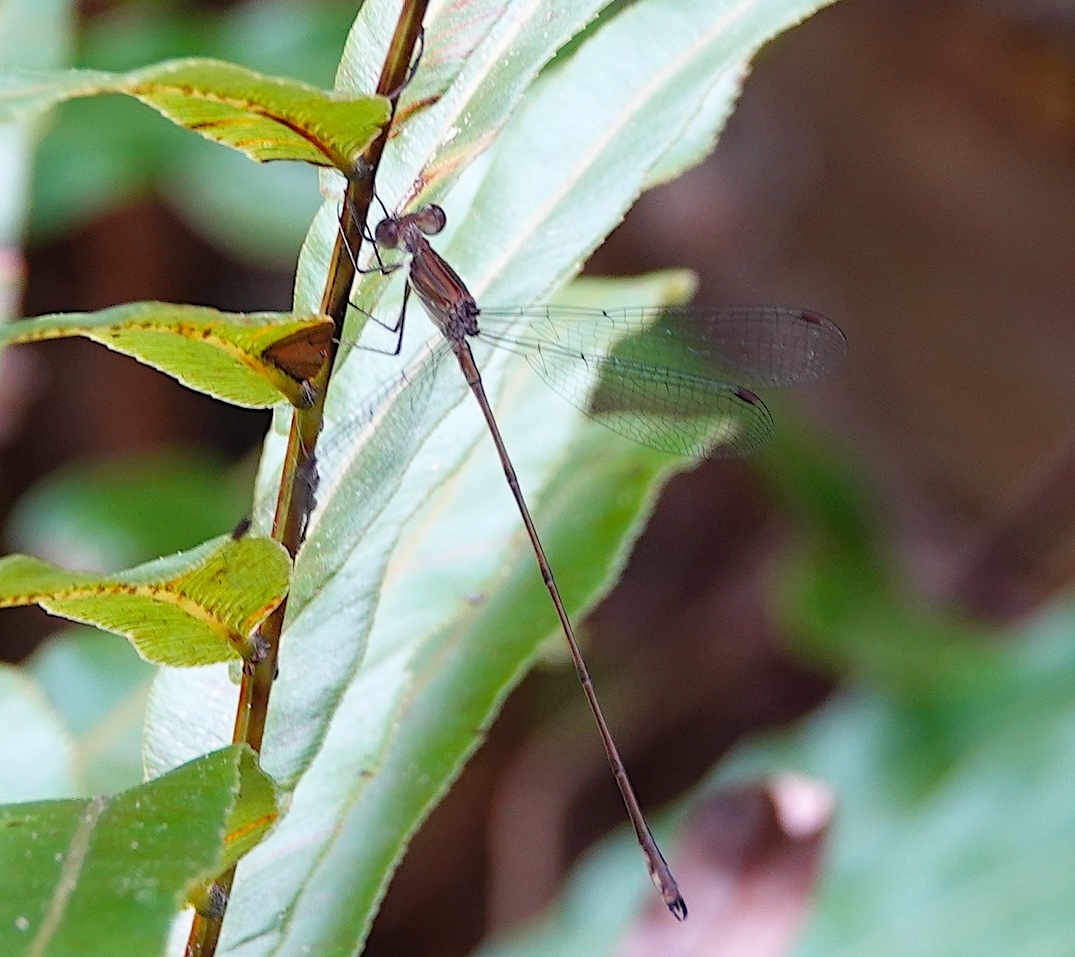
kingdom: Animalia
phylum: Arthropoda
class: Insecta
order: Odonata
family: Lestidae
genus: Lestes
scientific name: Lestes tenuatus
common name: Blue-striped spreadwing
